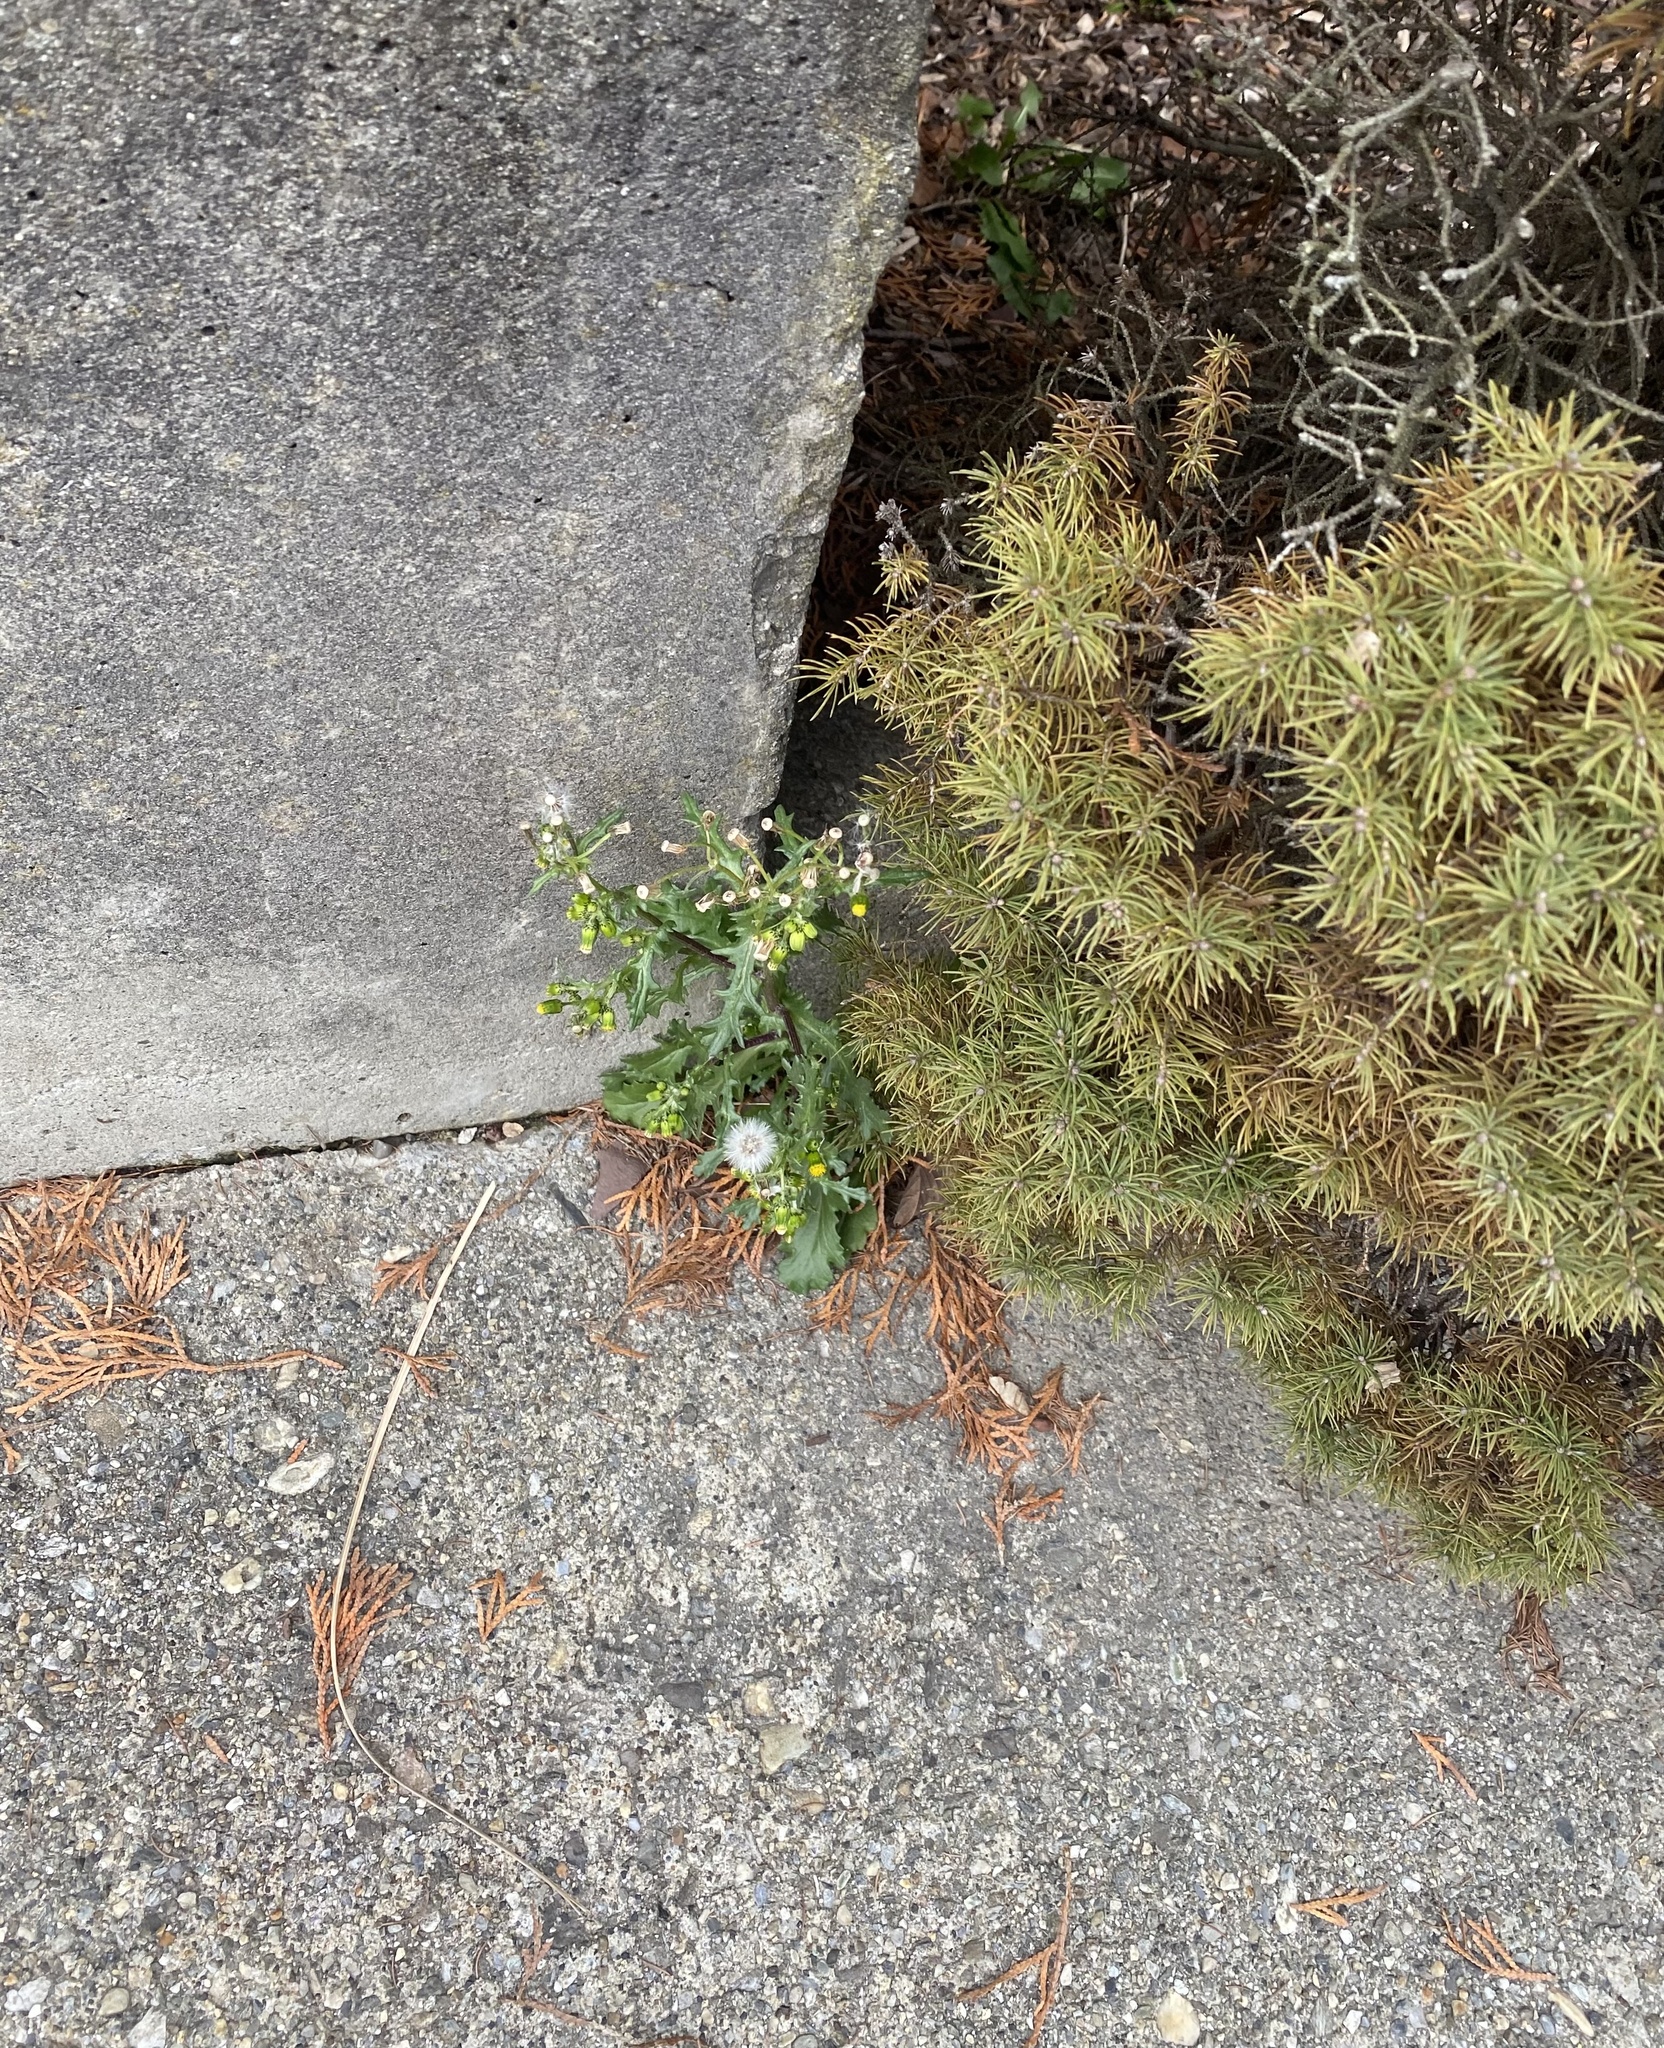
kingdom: Plantae
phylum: Tracheophyta
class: Magnoliopsida
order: Asterales
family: Asteraceae
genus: Senecio
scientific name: Senecio vulgaris
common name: Old-man-in-the-spring
